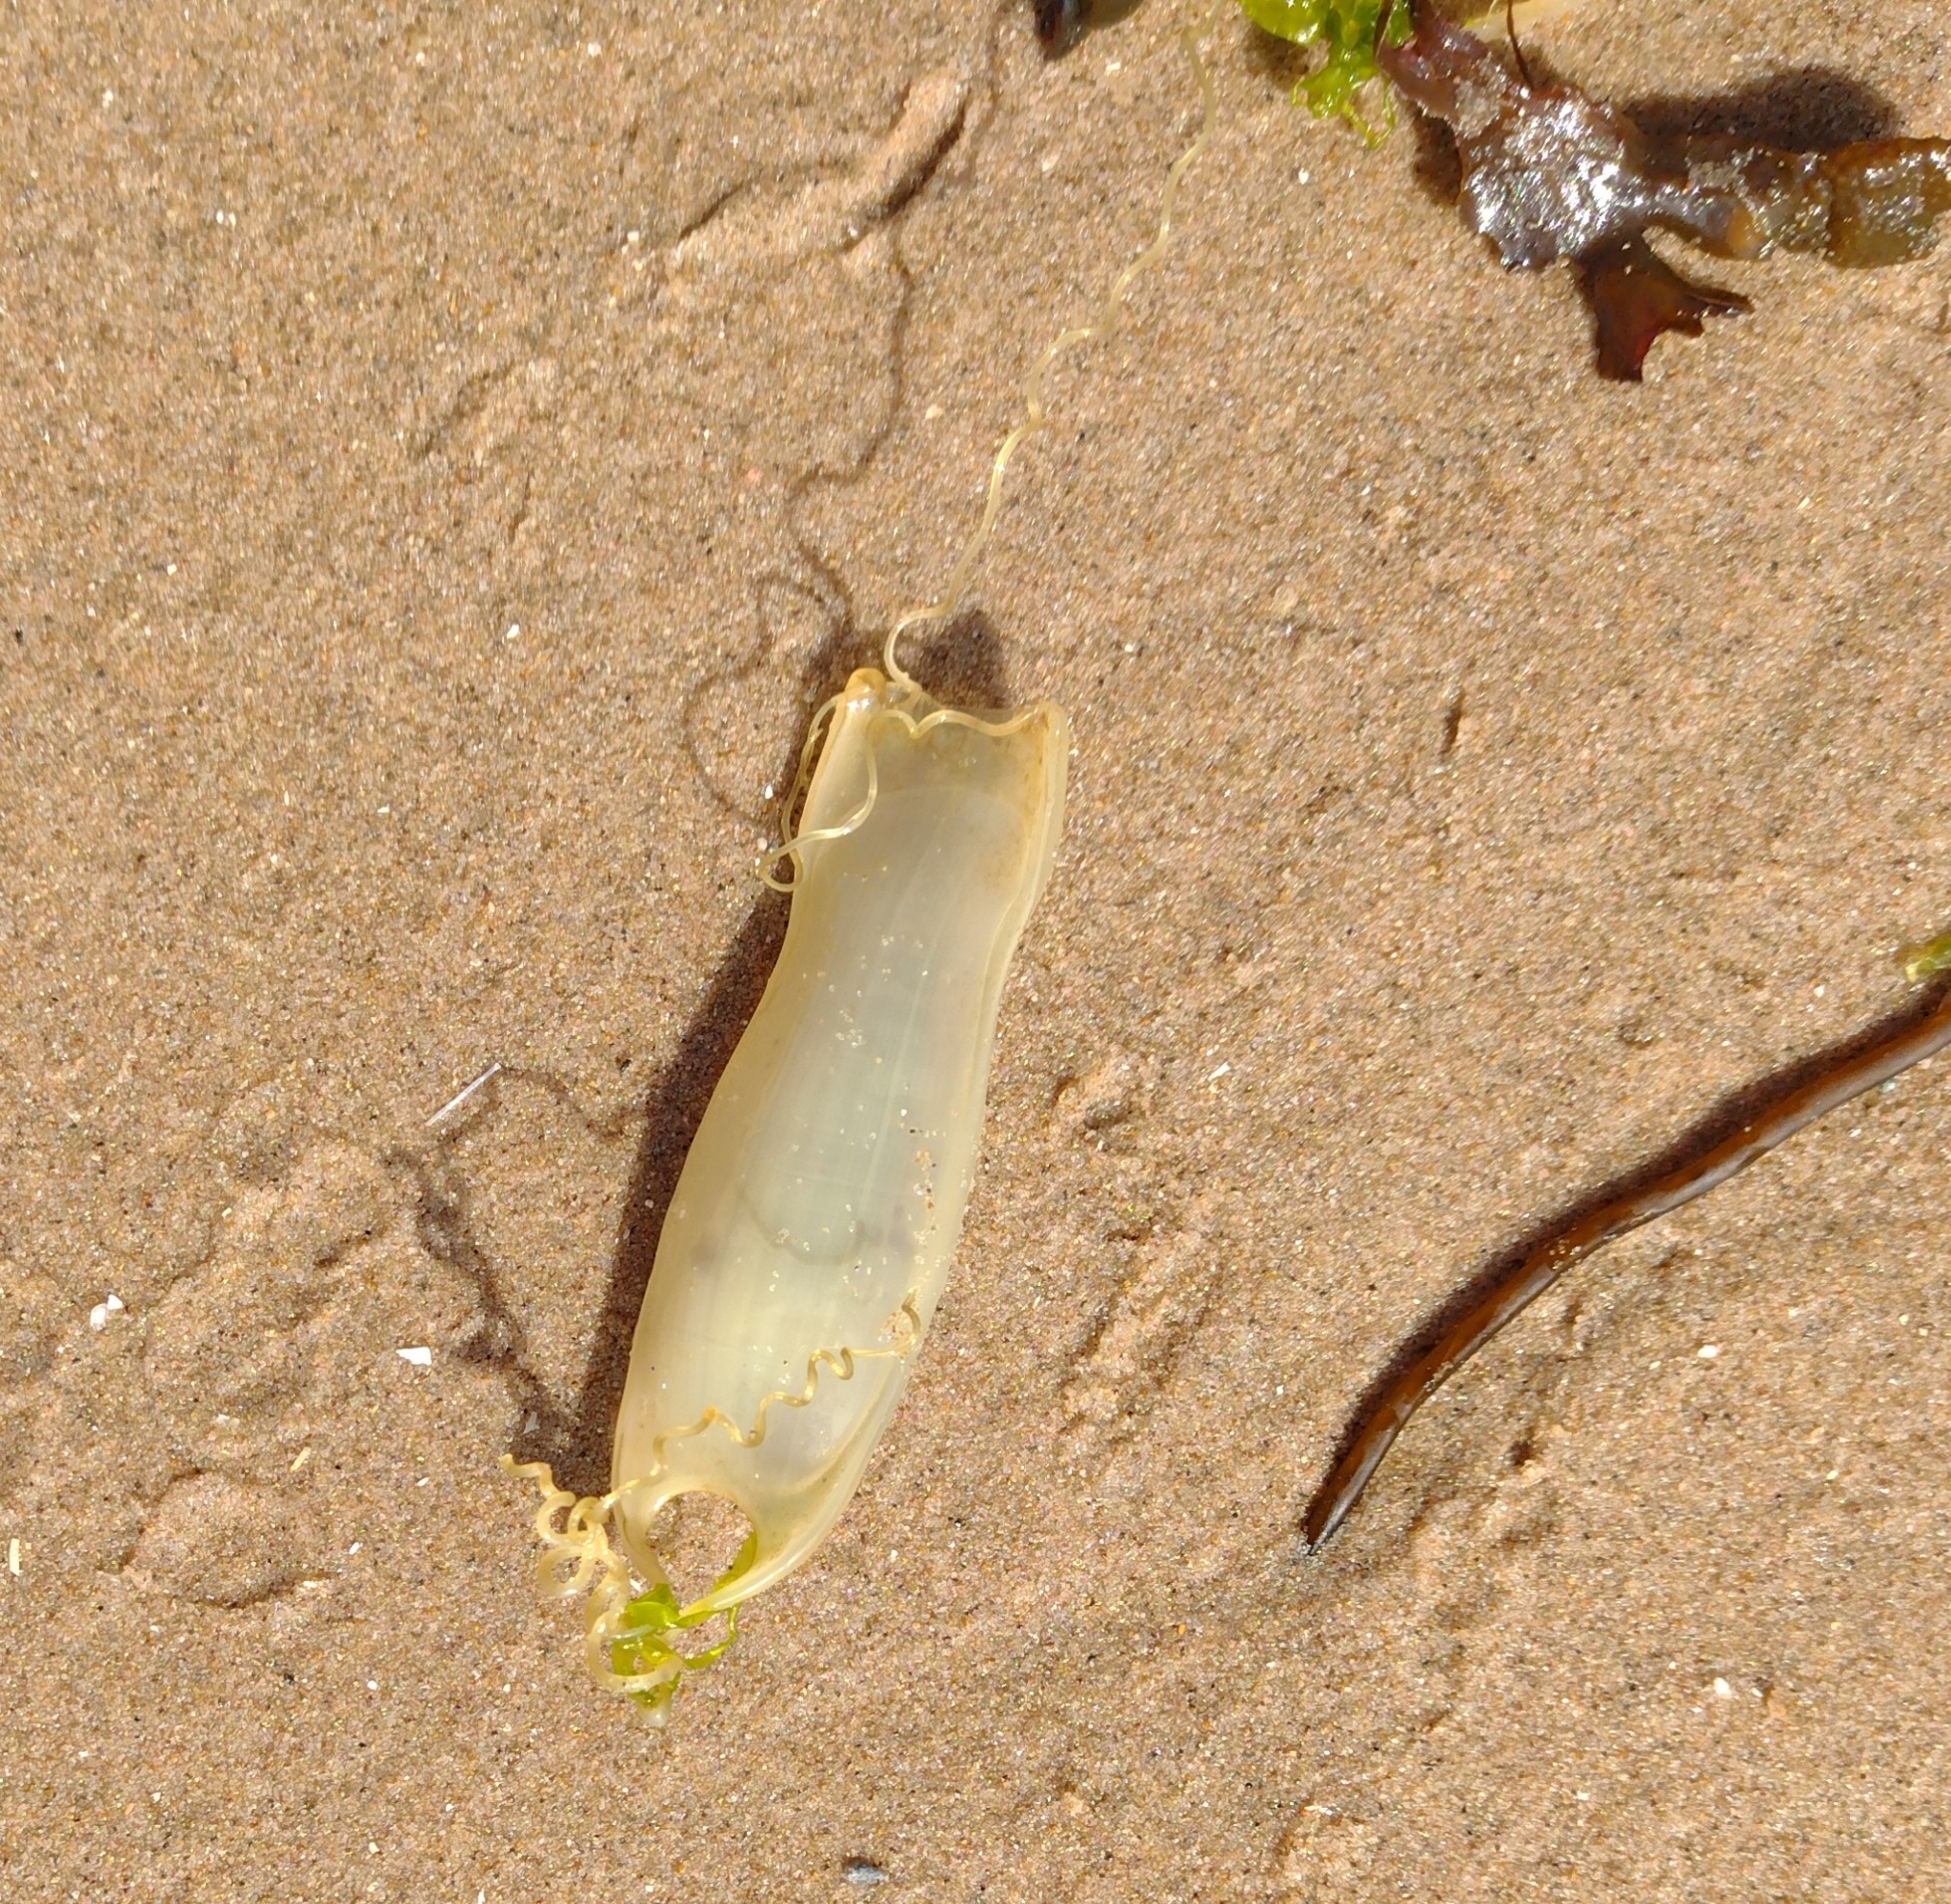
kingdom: Animalia
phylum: Chordata
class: Elasmobranchii
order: Carcharhiniformes
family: Scyliorhinidae
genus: Scyliorhinus
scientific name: Scyliorhinus canicula
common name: Lesser spotted dogfish
